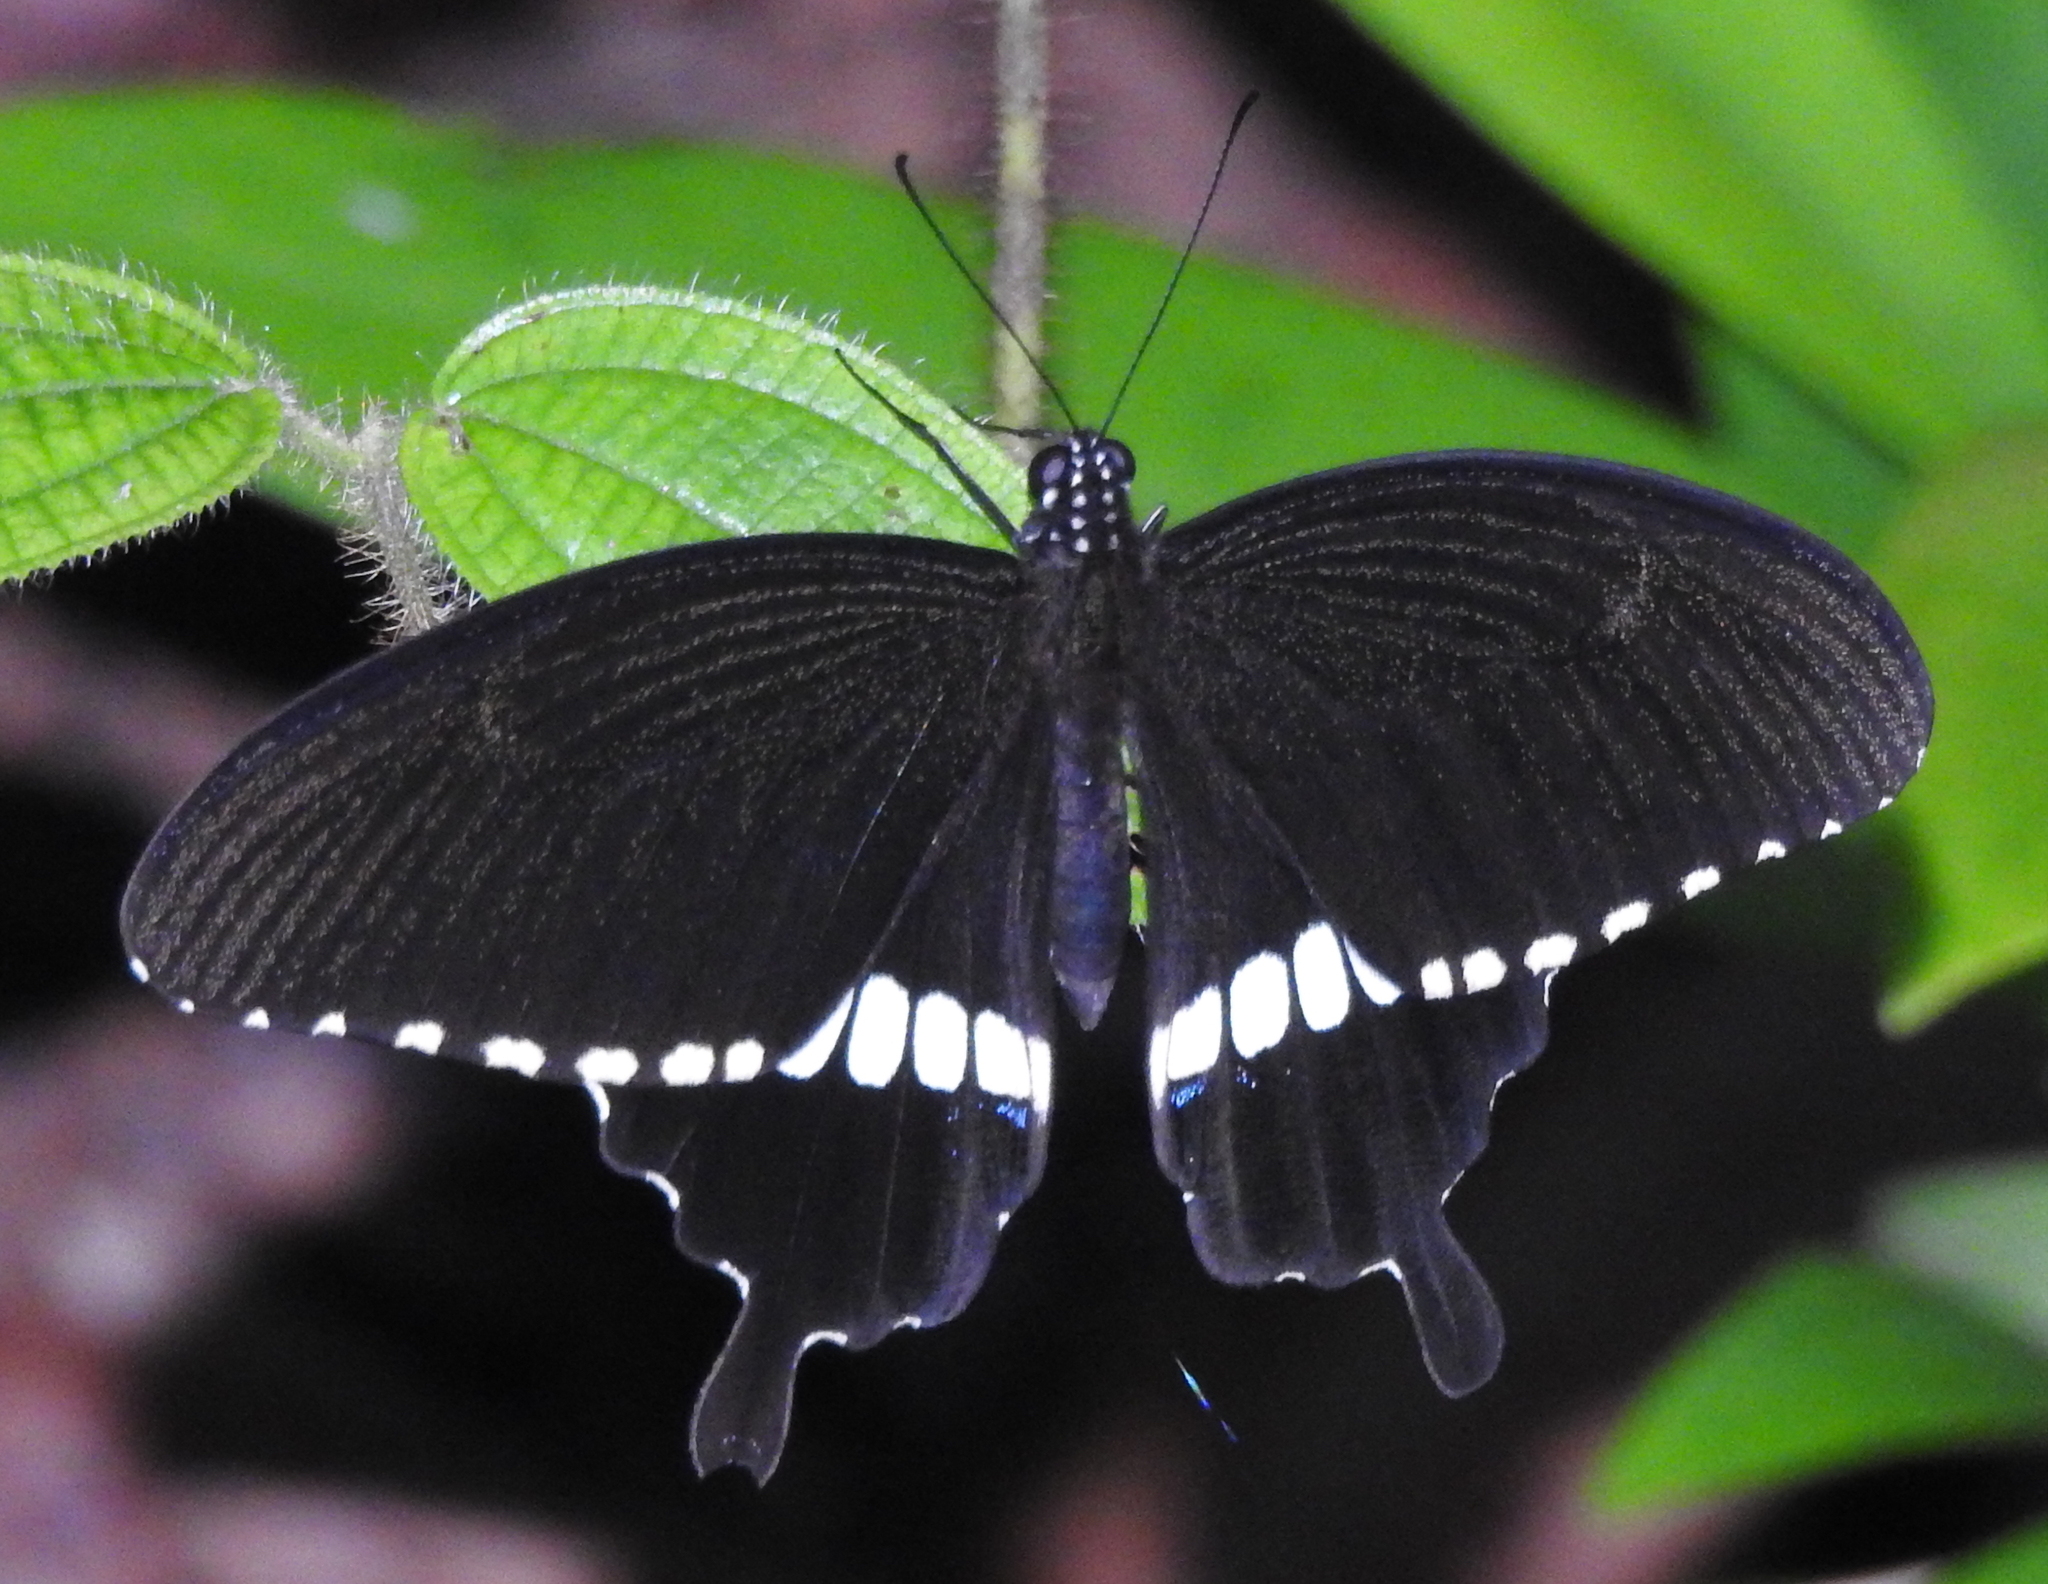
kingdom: Animalia
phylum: Arthropoda
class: Insecta
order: Lepidoptera
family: Papilionidae
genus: Papilio
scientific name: Papilio polytes
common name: Common mormon
